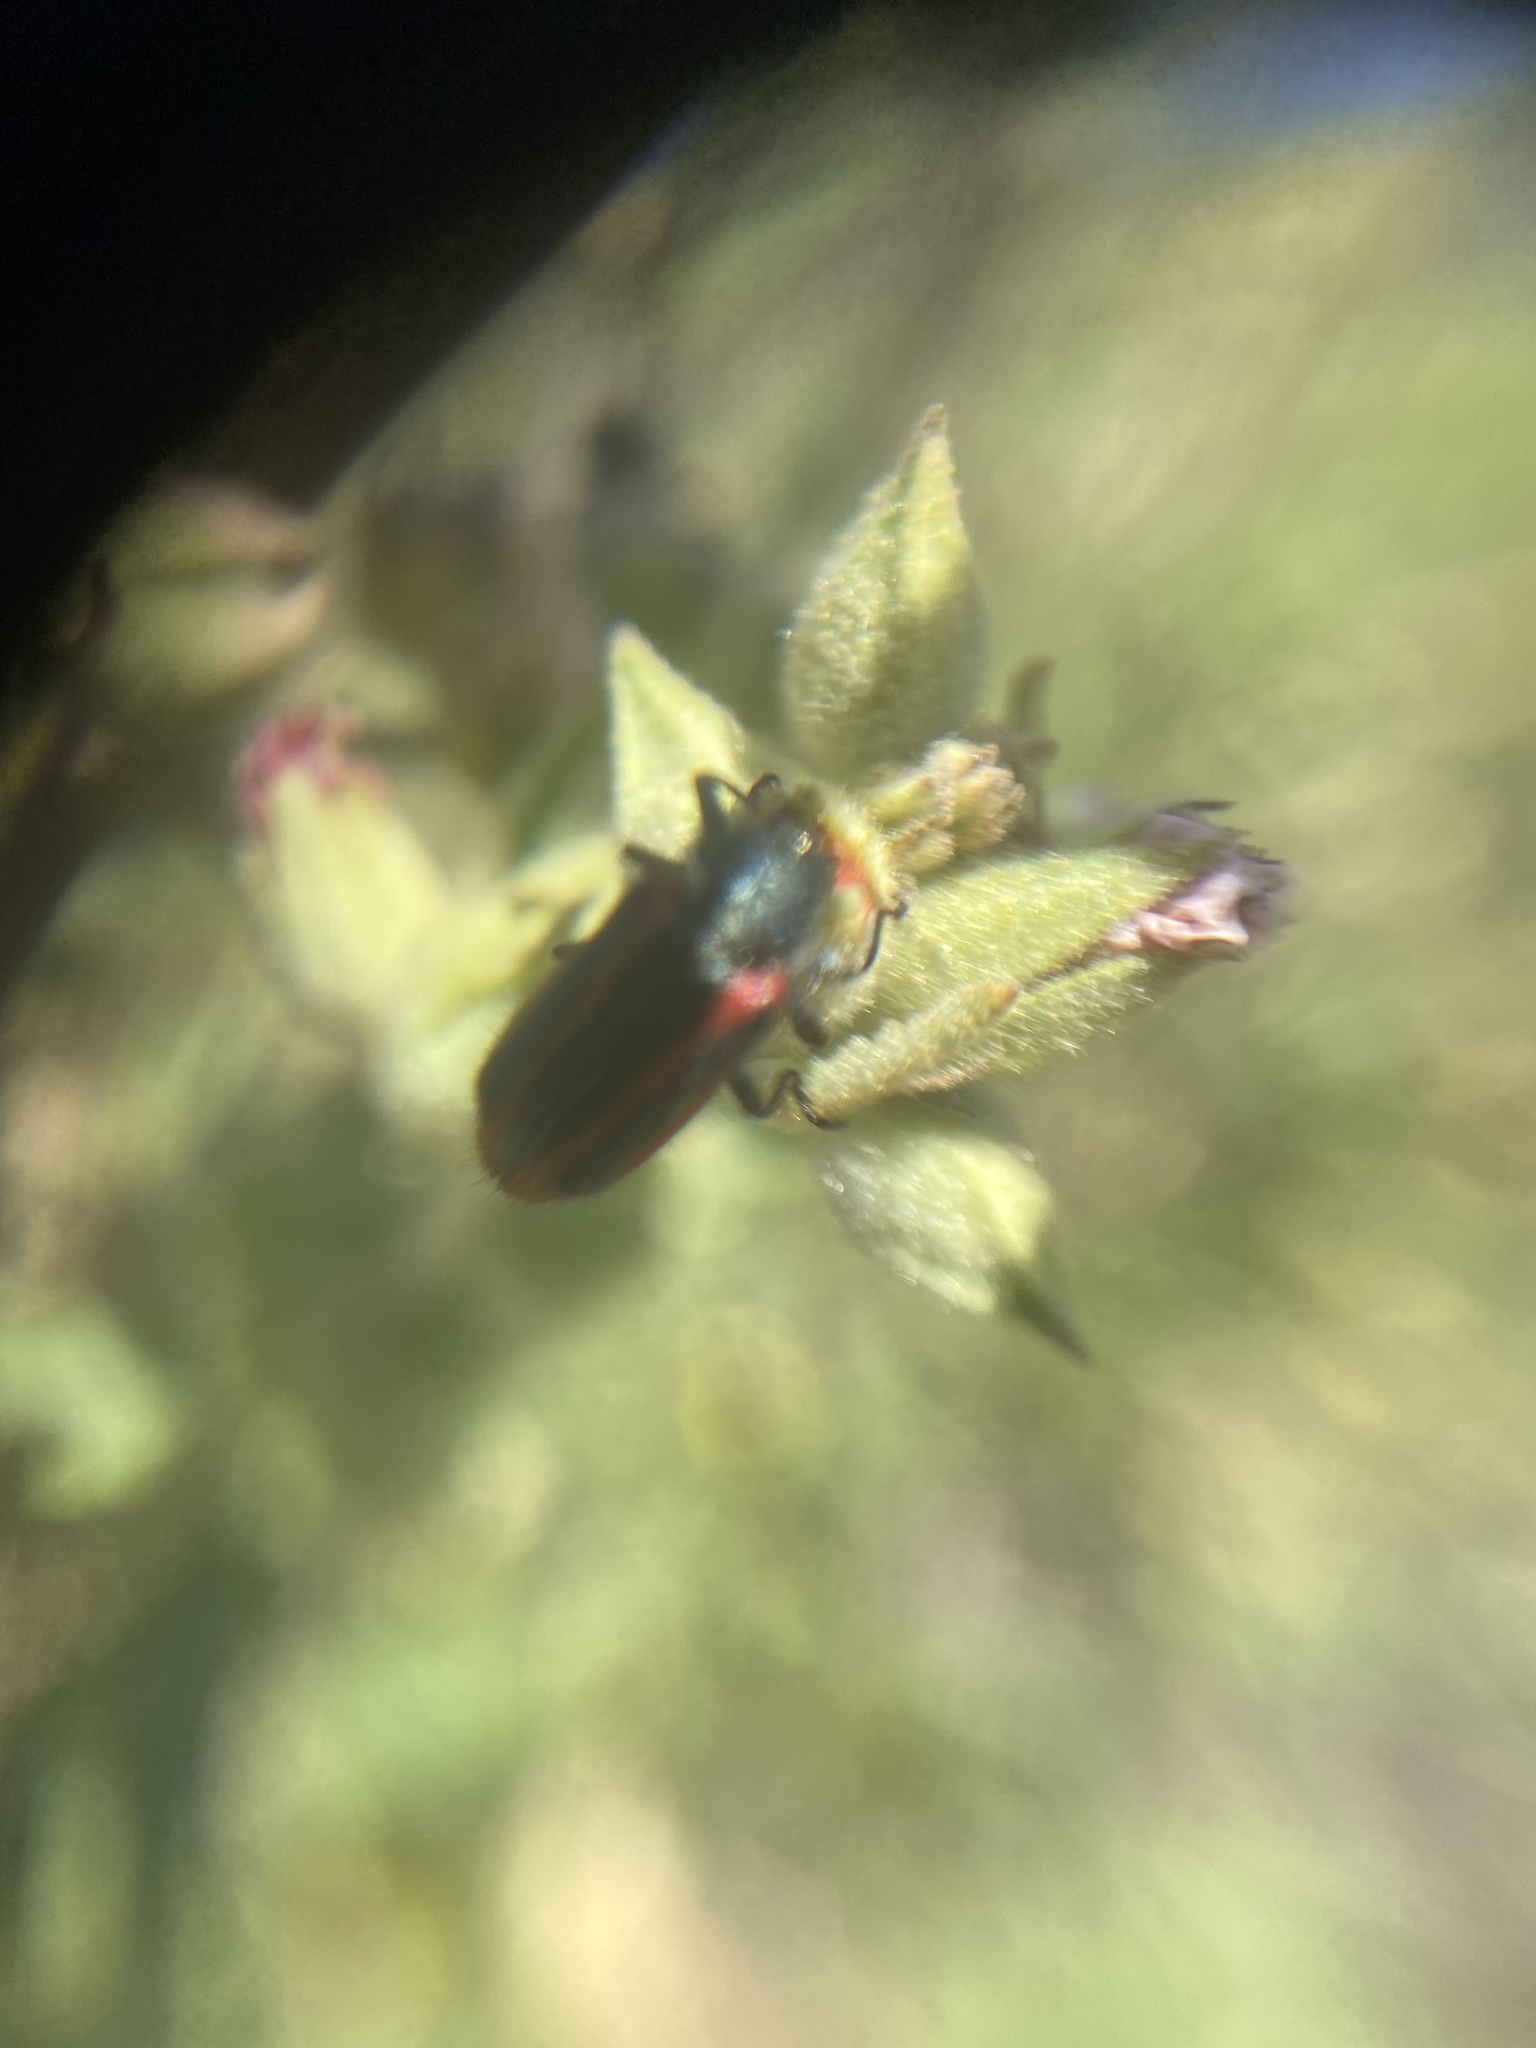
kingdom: Animalia
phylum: Arthropoda
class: Insecta
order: Coleoptera
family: Melyridae
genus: Astylus
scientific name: Astylus
